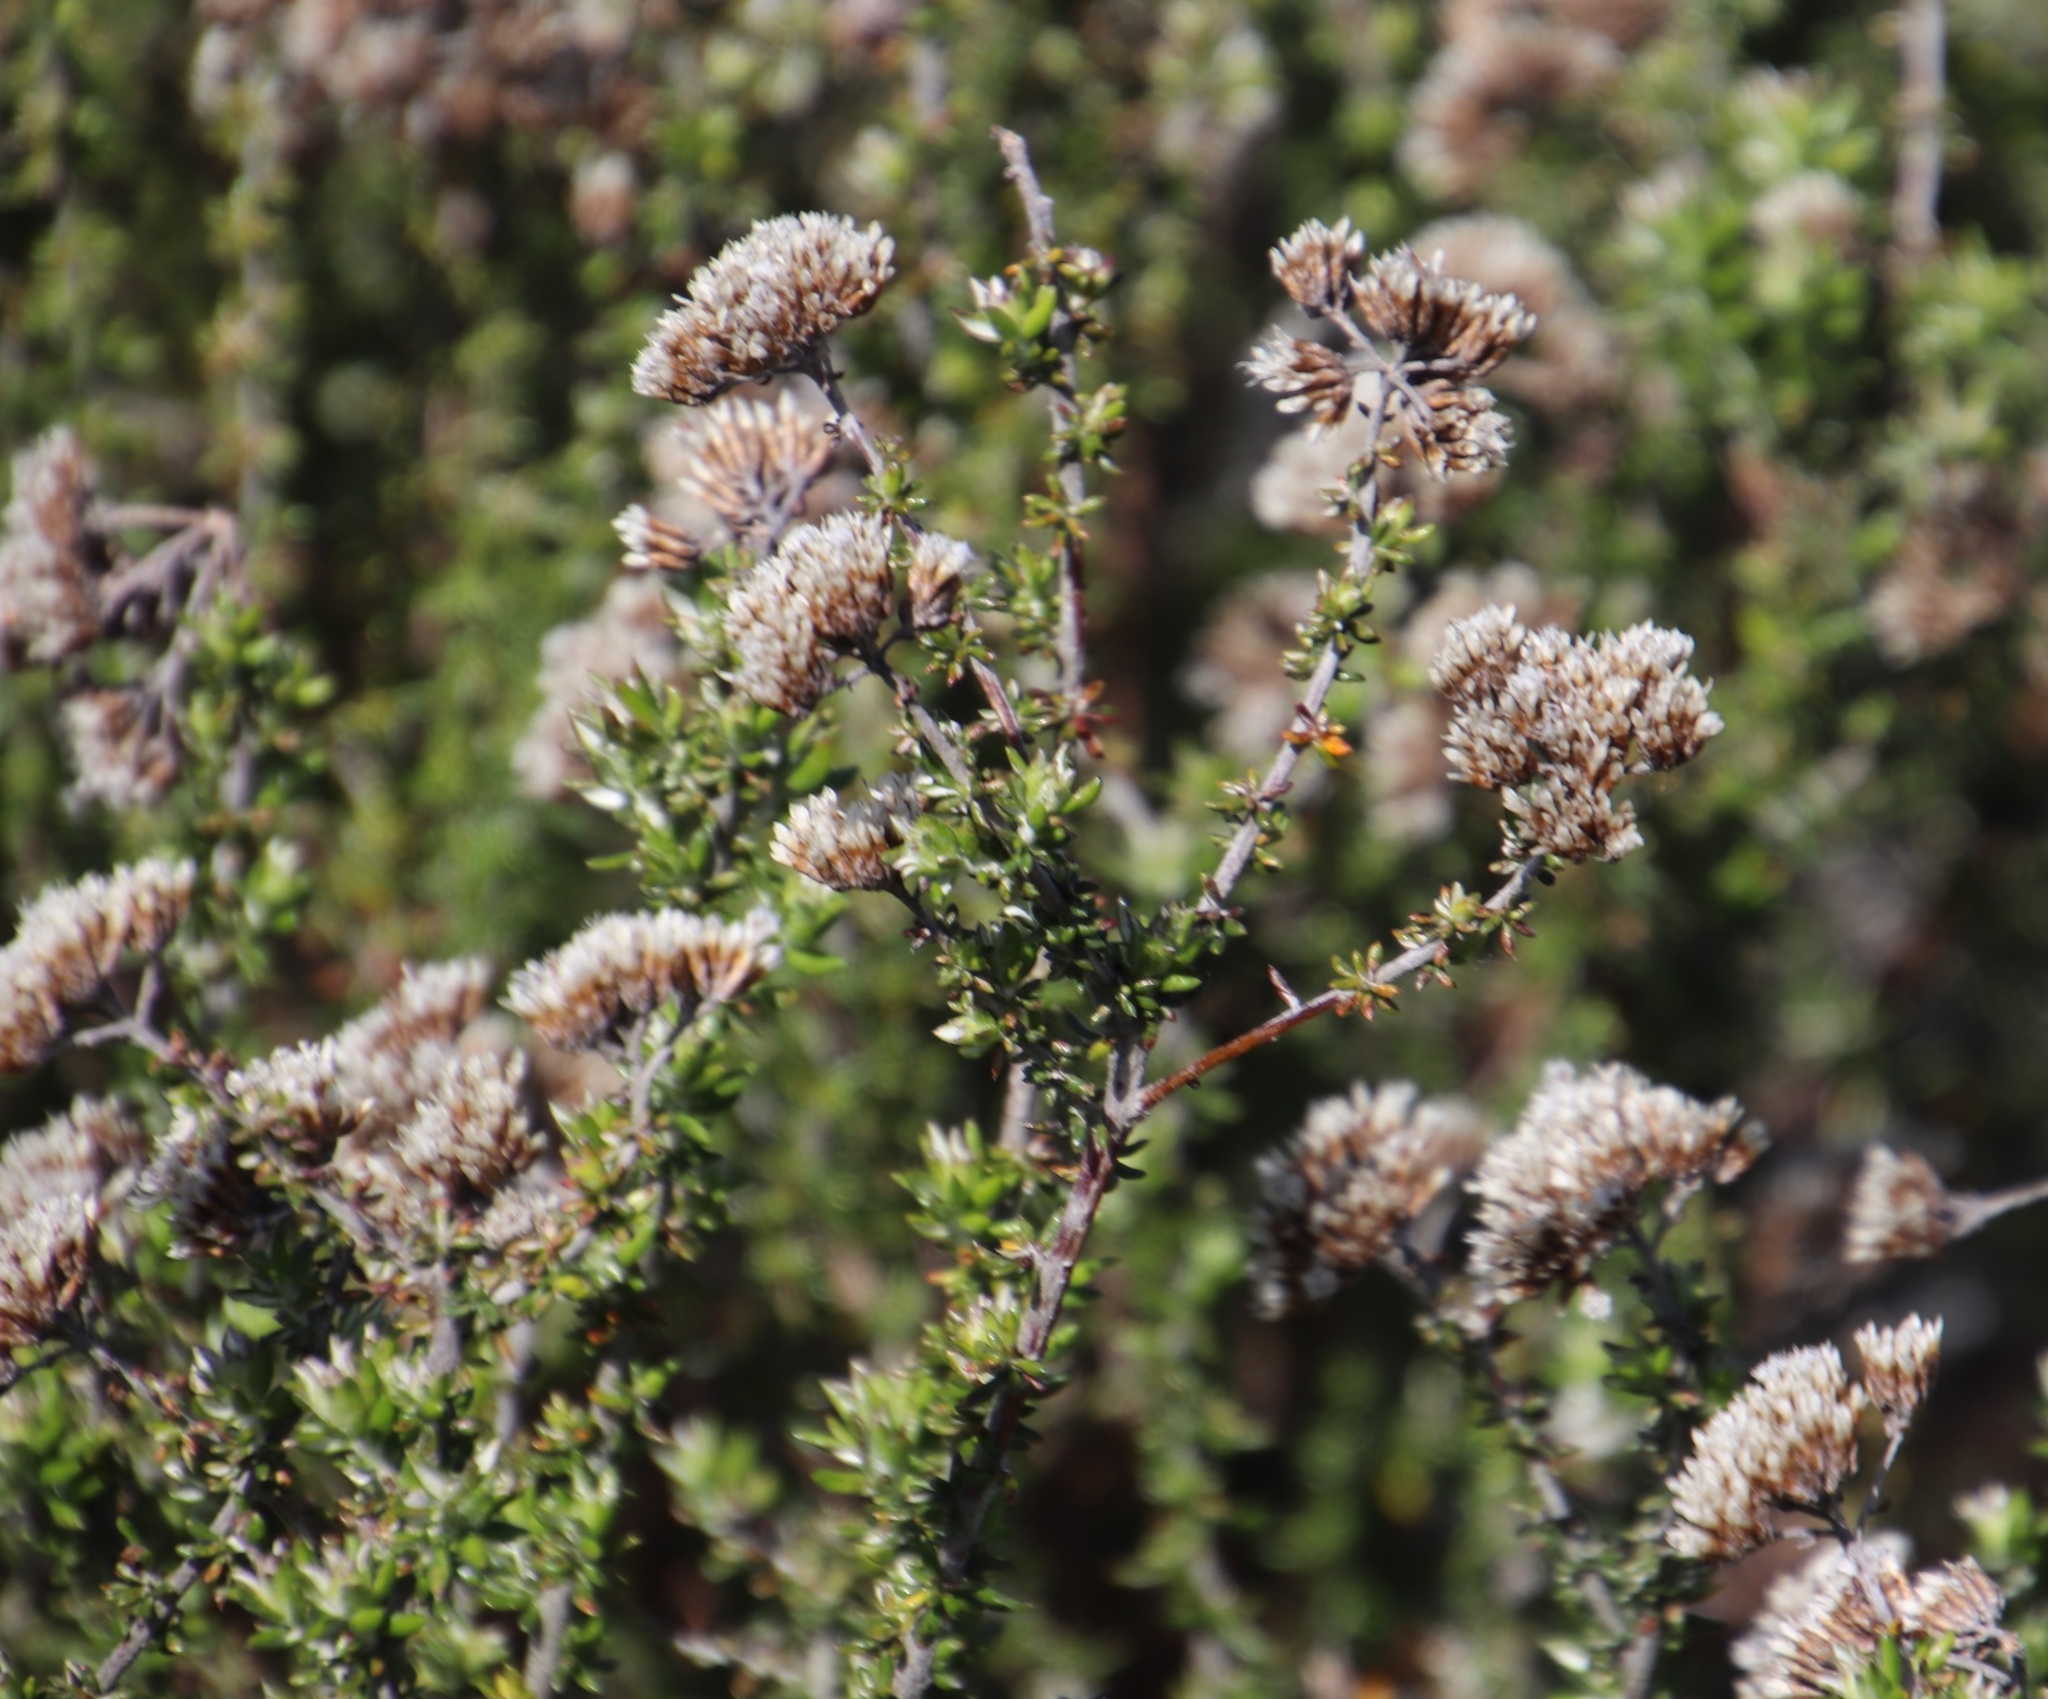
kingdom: Plantae
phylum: Tracheophyta
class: Magnoliopsida
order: Asterales
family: Asteraceae
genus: Metalasia
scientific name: Metalasia densa
